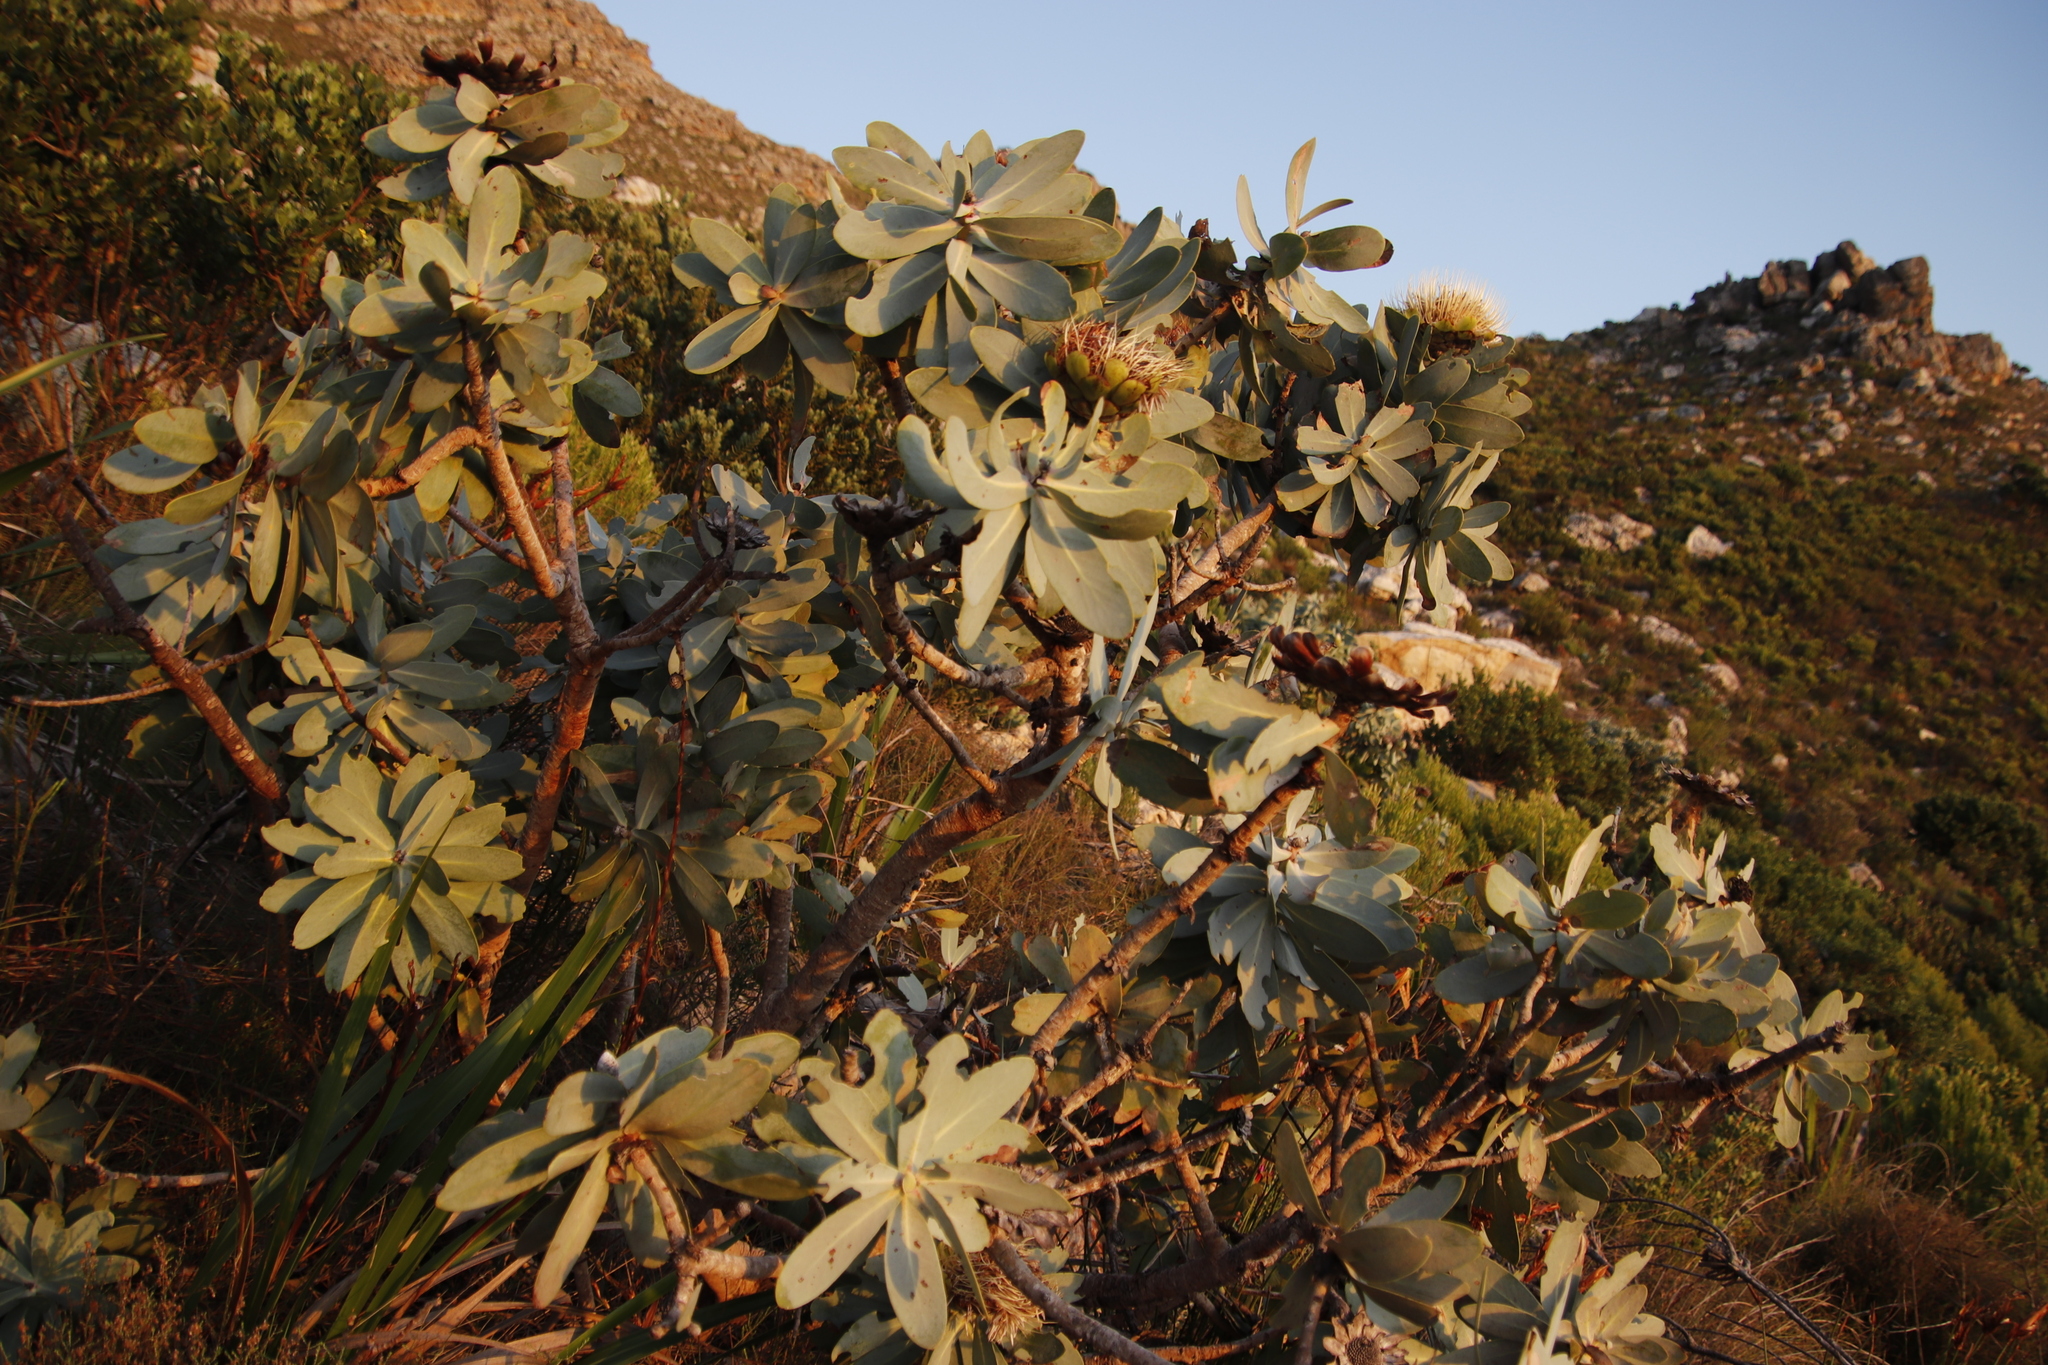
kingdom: Plantae
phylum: Tracheophyta
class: Magnoliopsida
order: Proteales
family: Proteaceae
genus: Protea
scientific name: Protea nitida
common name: Tree protea
